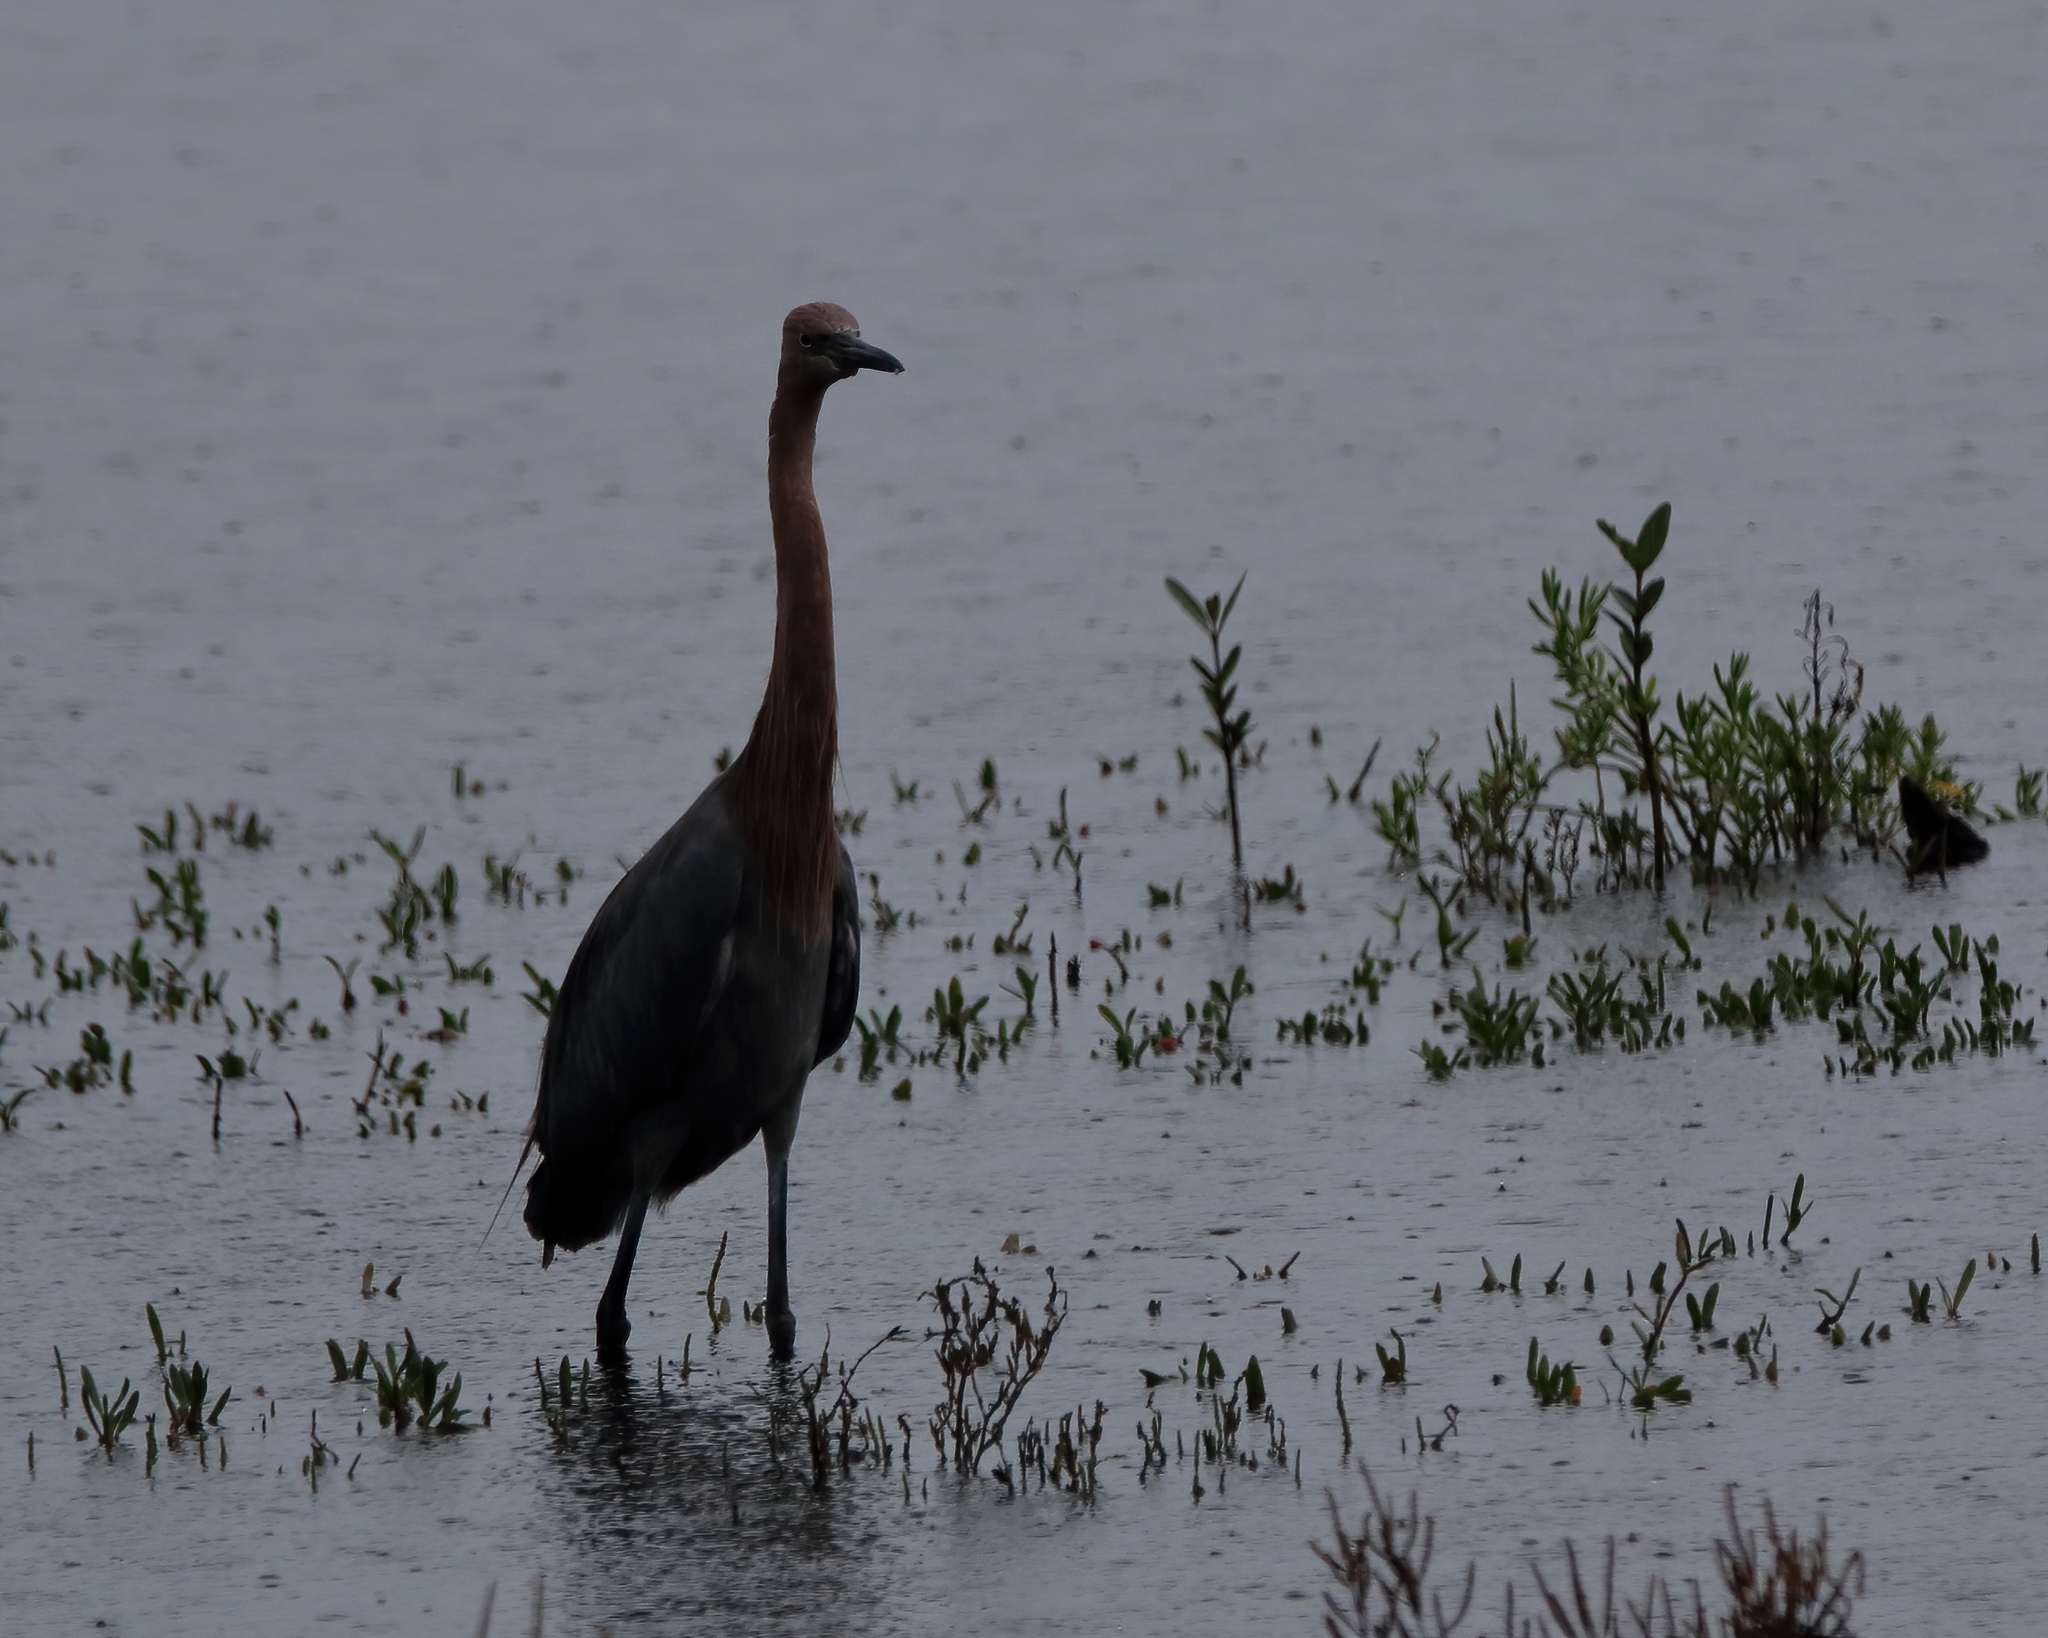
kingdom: Animalia
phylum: Chordata
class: Aves
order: Pelecaniformes
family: Ardeidae
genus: Egretta
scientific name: Egretta rufescens
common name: Reddish egret
